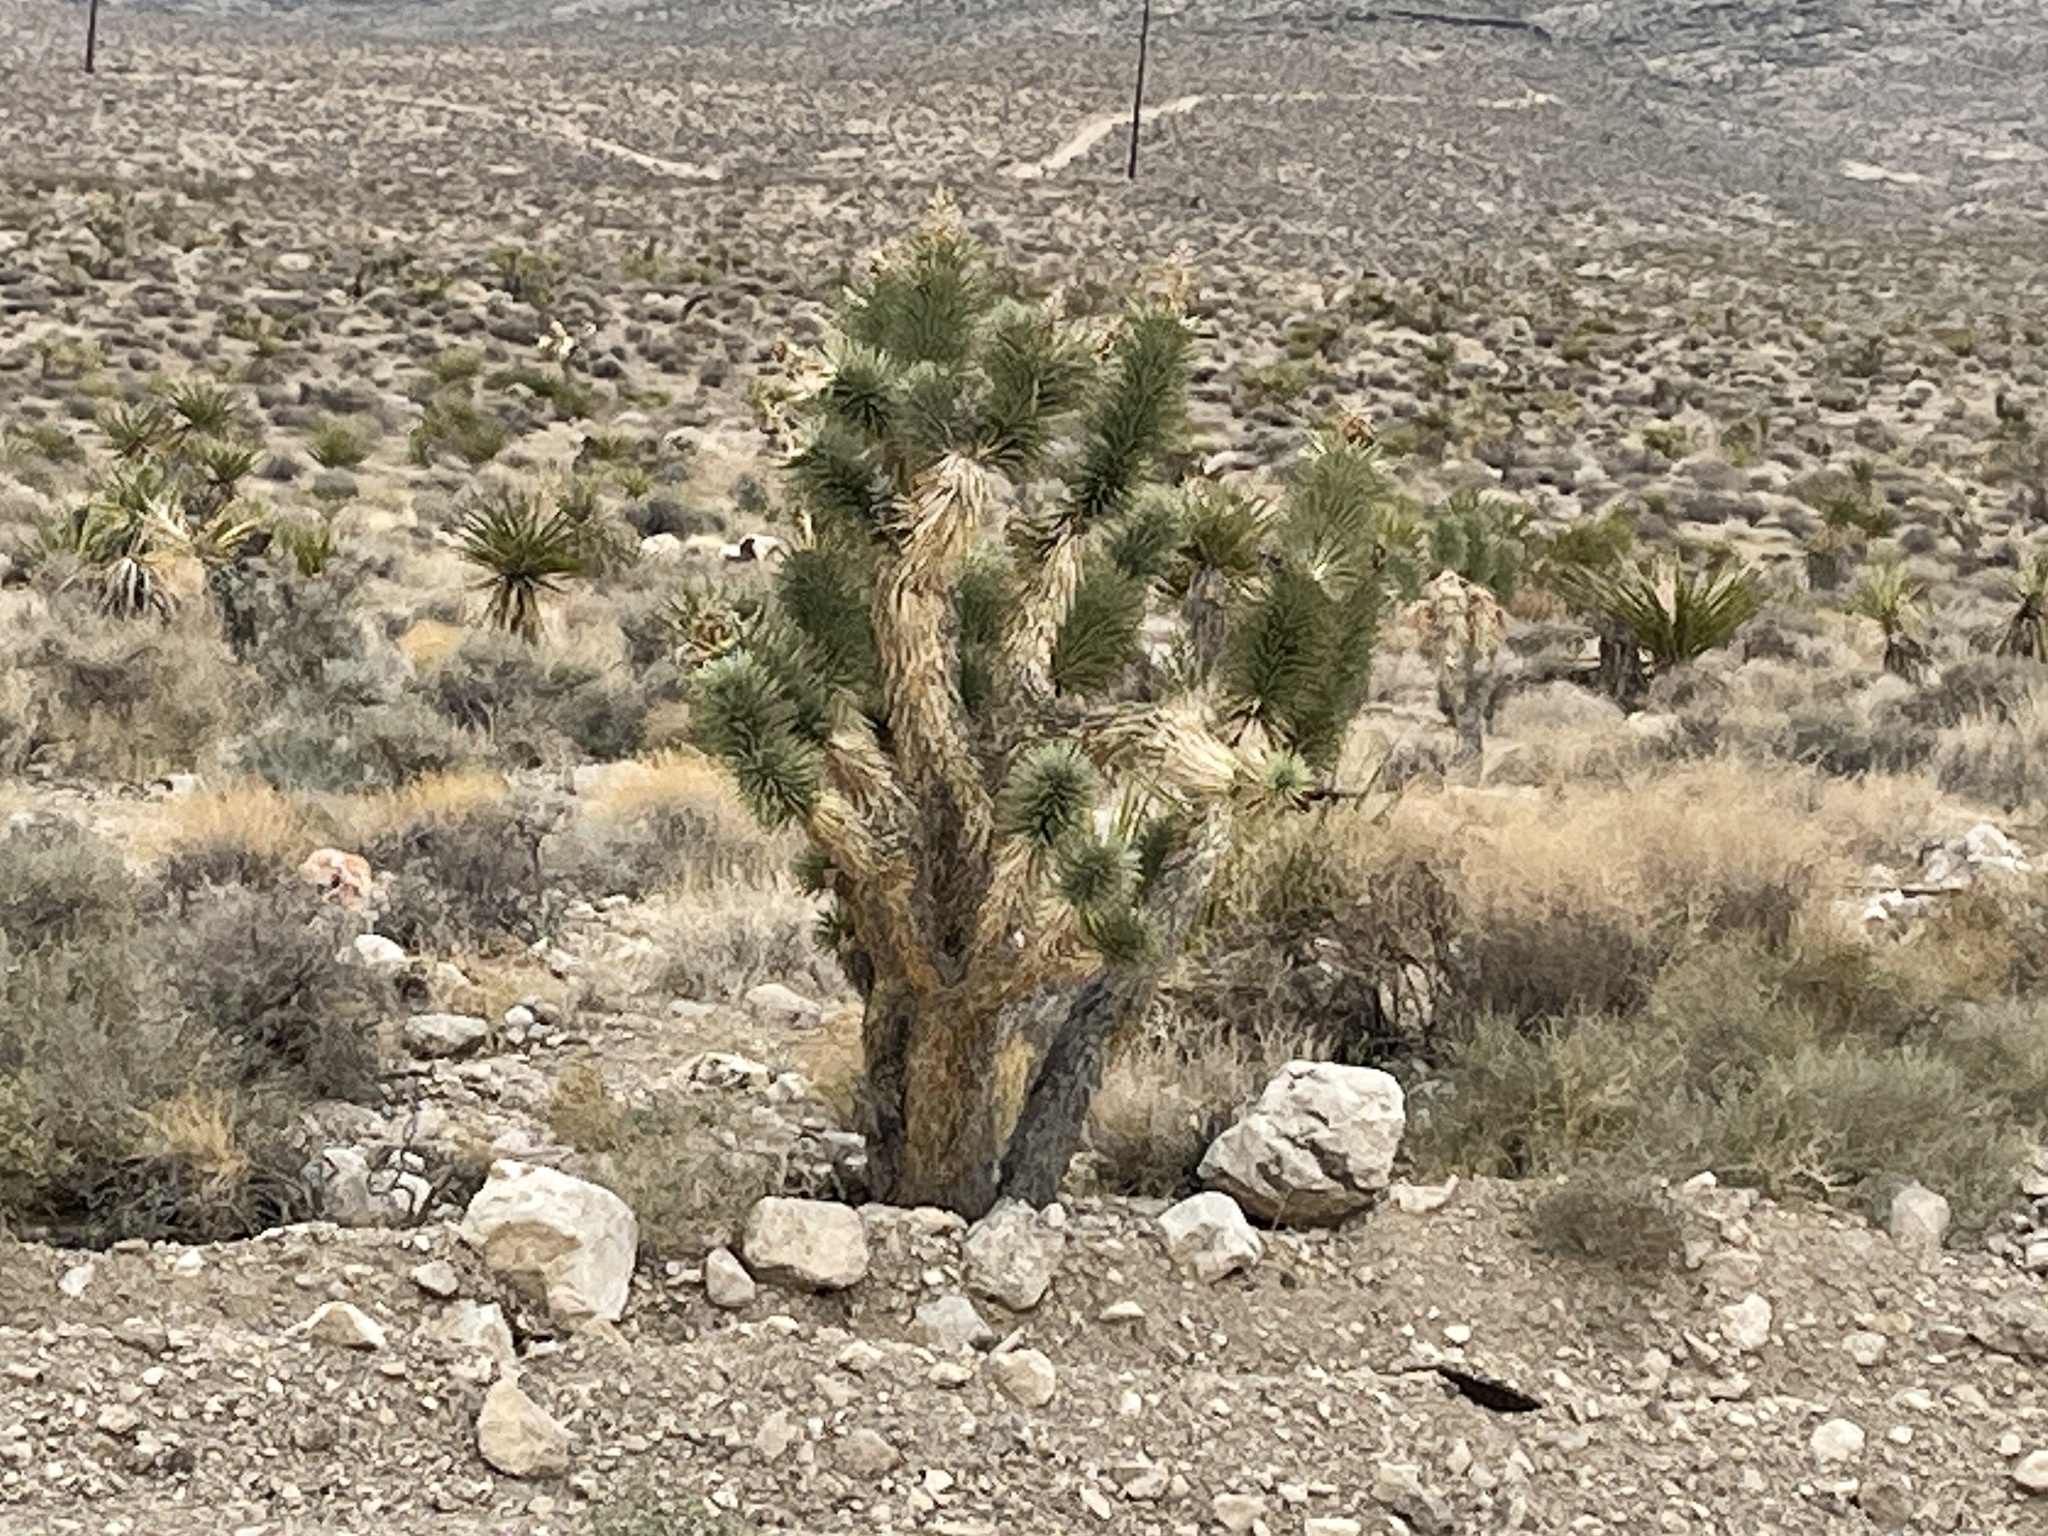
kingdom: Plantae
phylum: Tracheophyta
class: Liliopsida
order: Asparagales
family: Asparagaceae
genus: Yucca
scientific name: Yucca brevifolia
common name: Joshua tree
